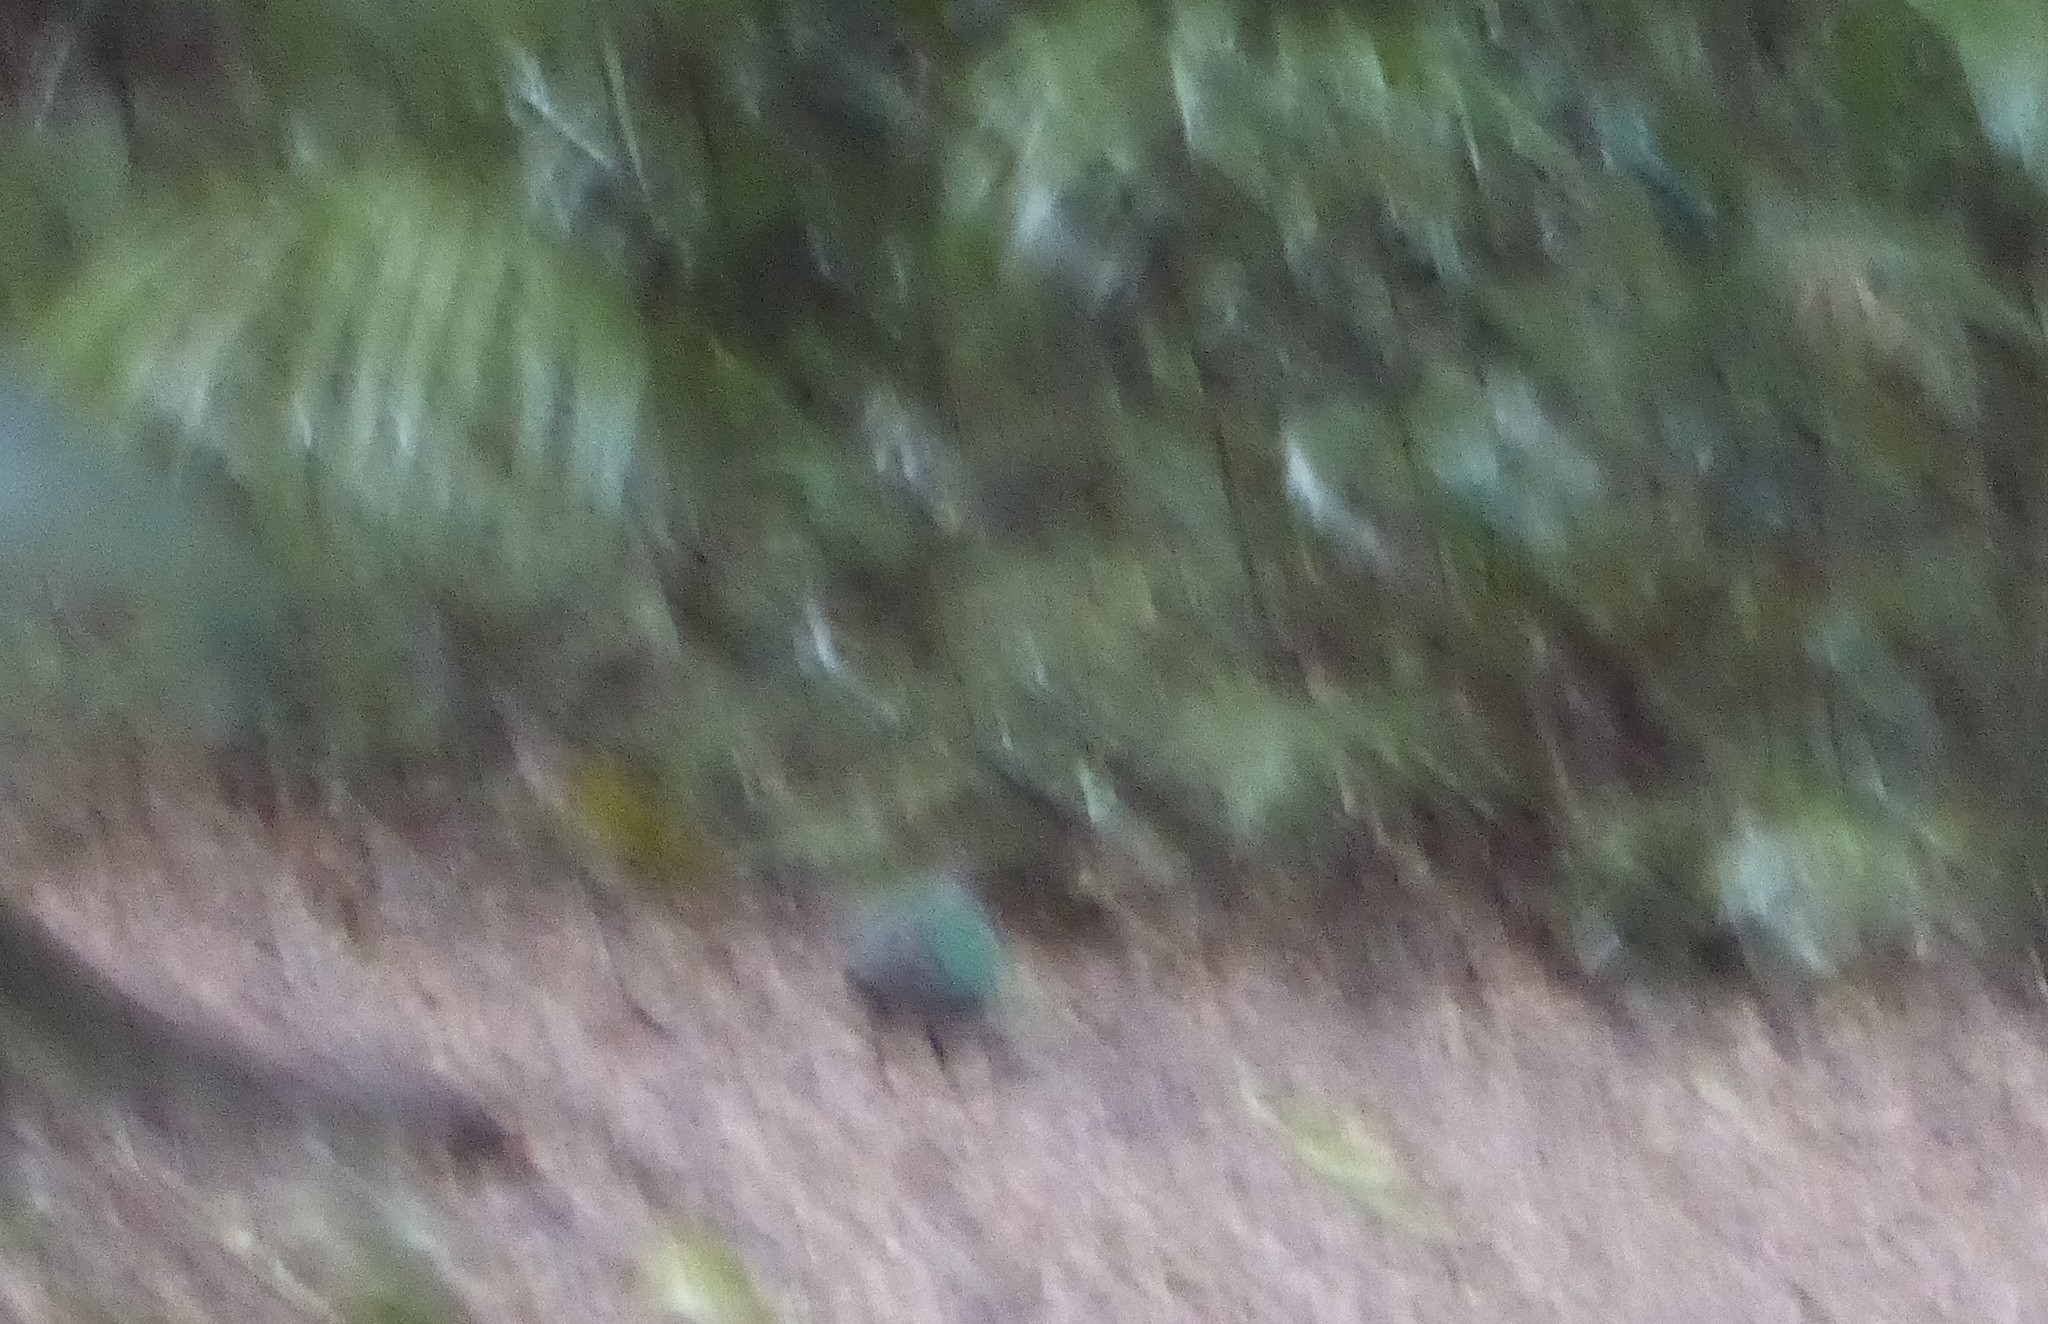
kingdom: Animalia
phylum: Chordata
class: Aves
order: Columbiformes
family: Columbidae
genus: Chalcophaps
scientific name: Chalcophaps longirostris
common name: Pacific emerald dove
